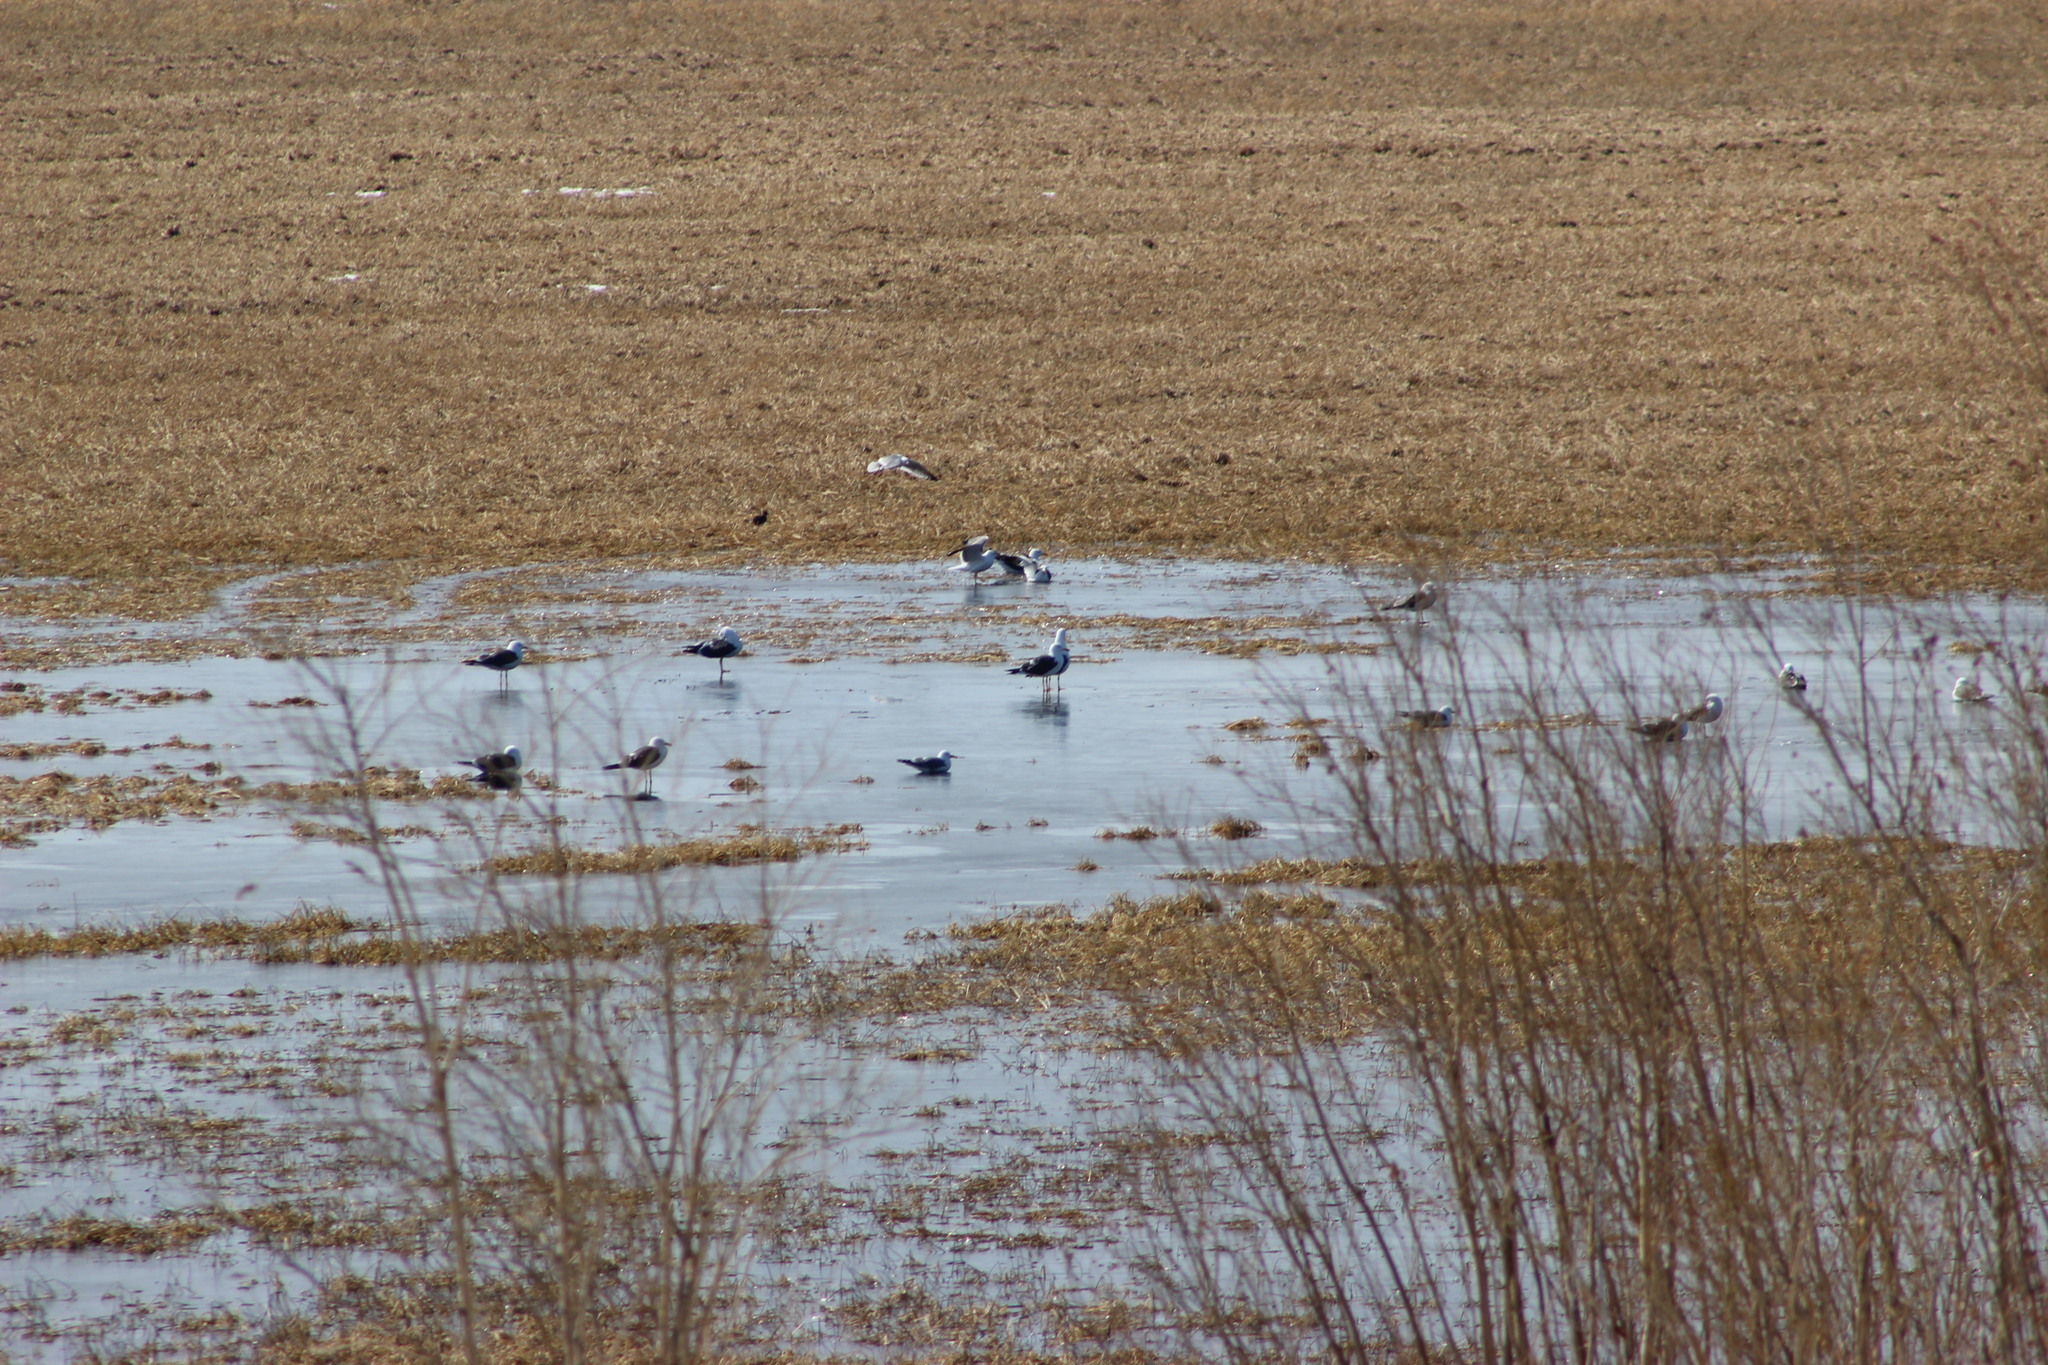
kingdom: Animalia
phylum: Chordata
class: Aves
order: Charadriiformes
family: Laridae
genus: Larus
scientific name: Larus fuscus
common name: Lesser black-backed gull
